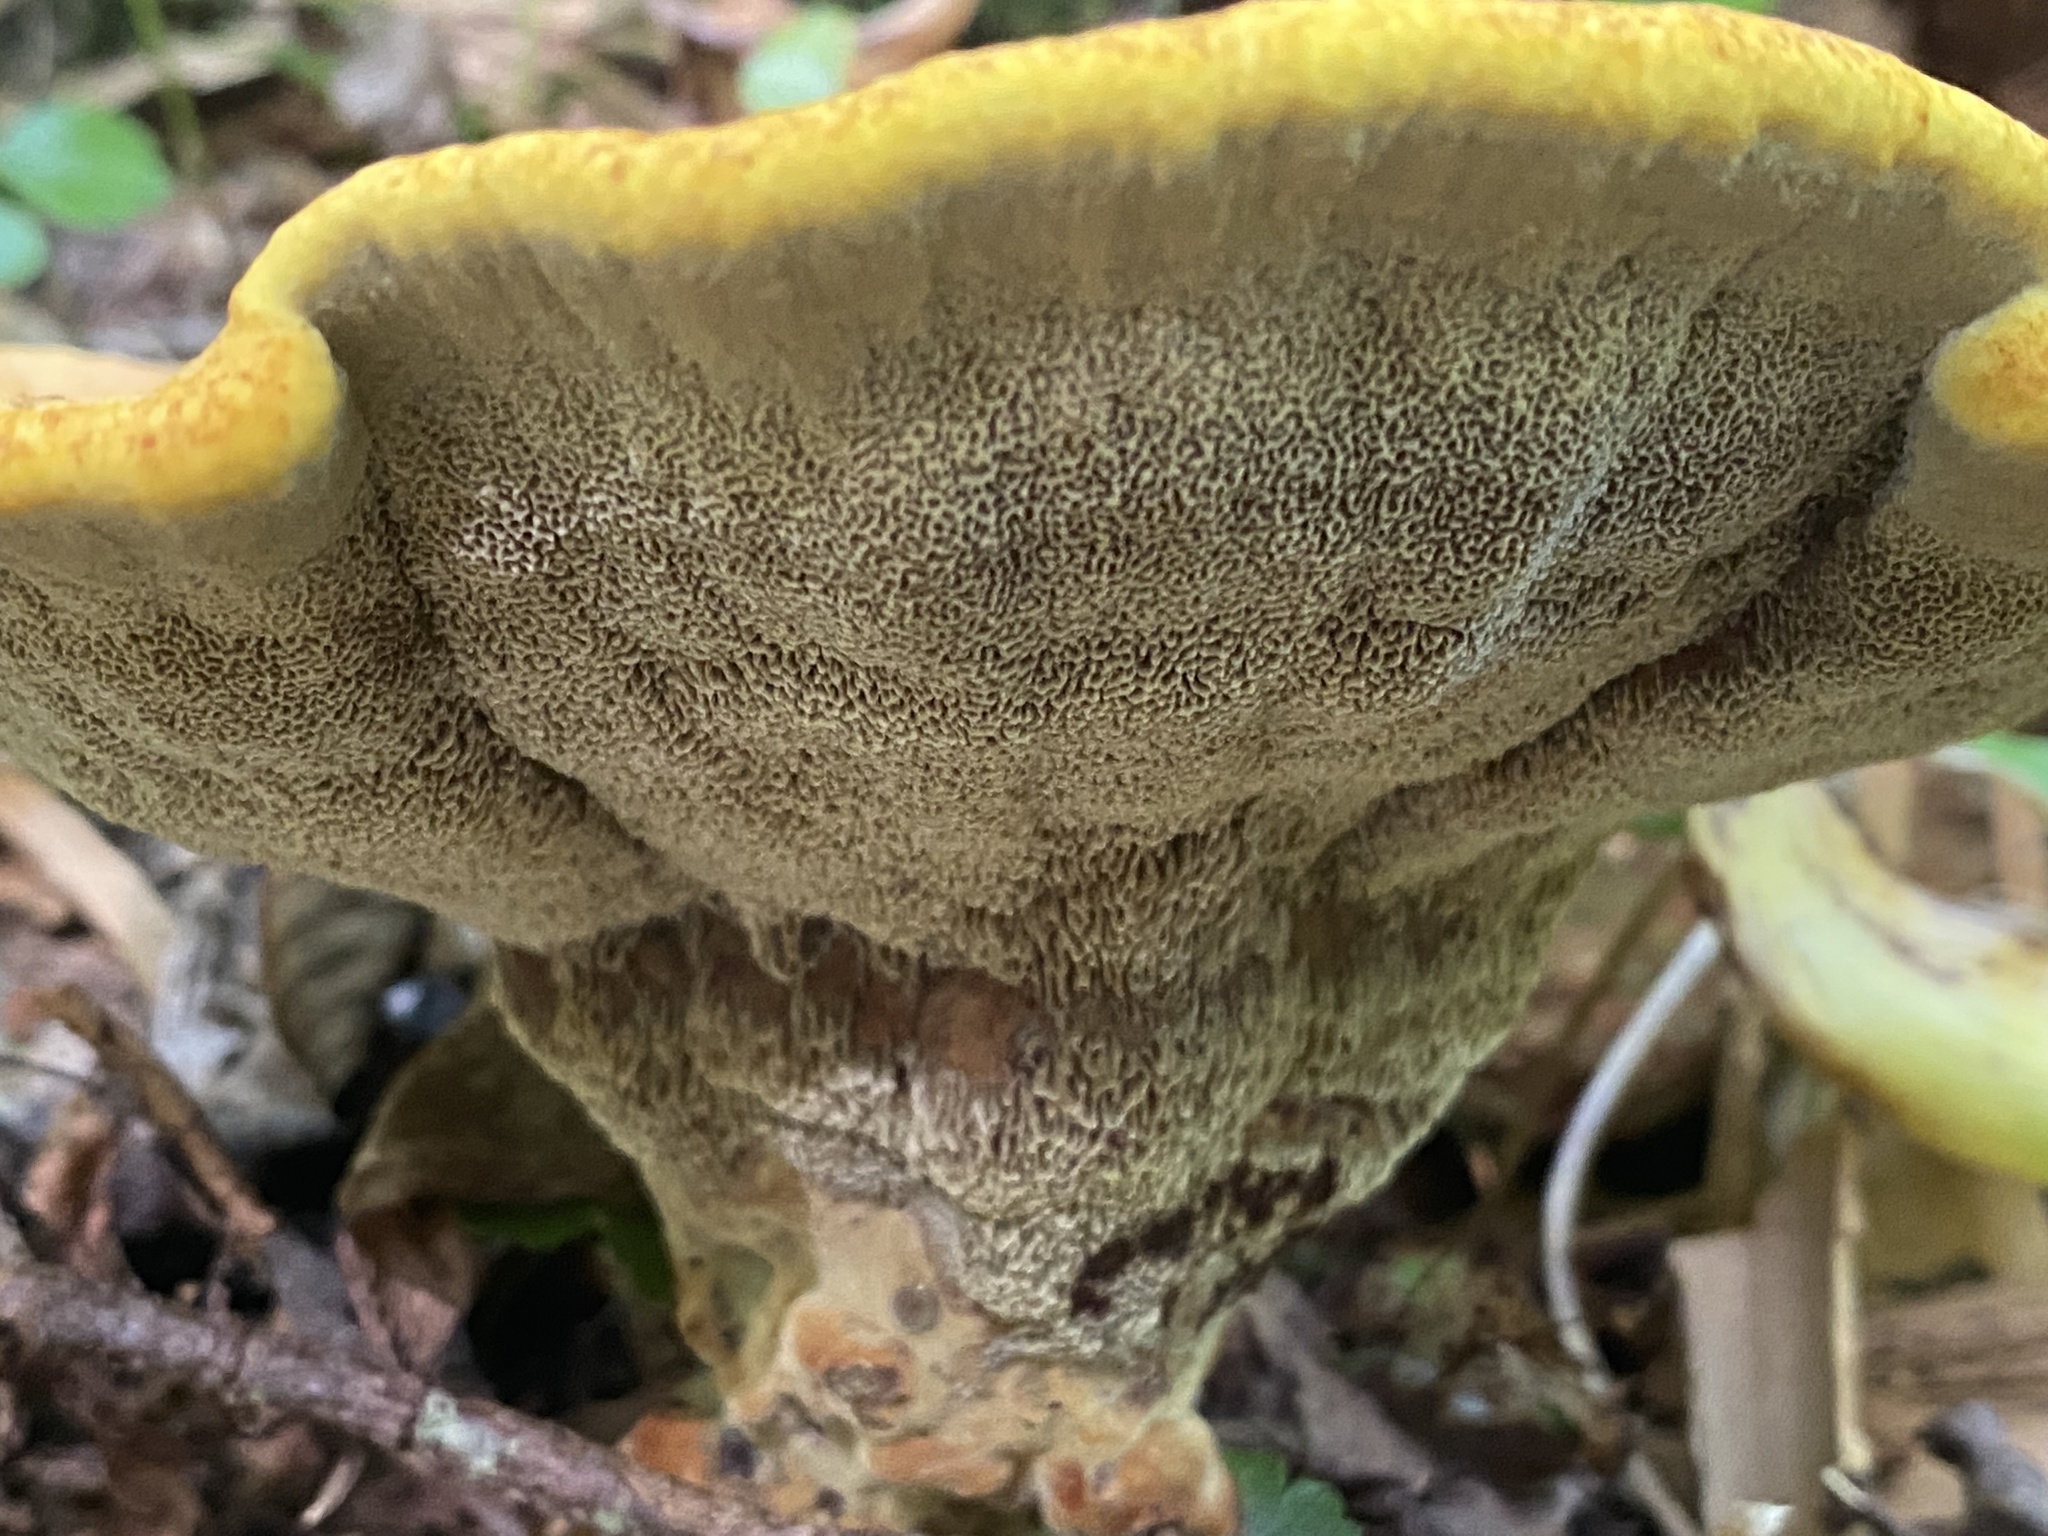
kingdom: Fungi
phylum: Basidiomycota
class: Agaricomycetes
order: Polyporales
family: Laetiporaceae
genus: Phaeolus
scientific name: Phaeolus schweinitzii
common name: Dyer's mazegill
